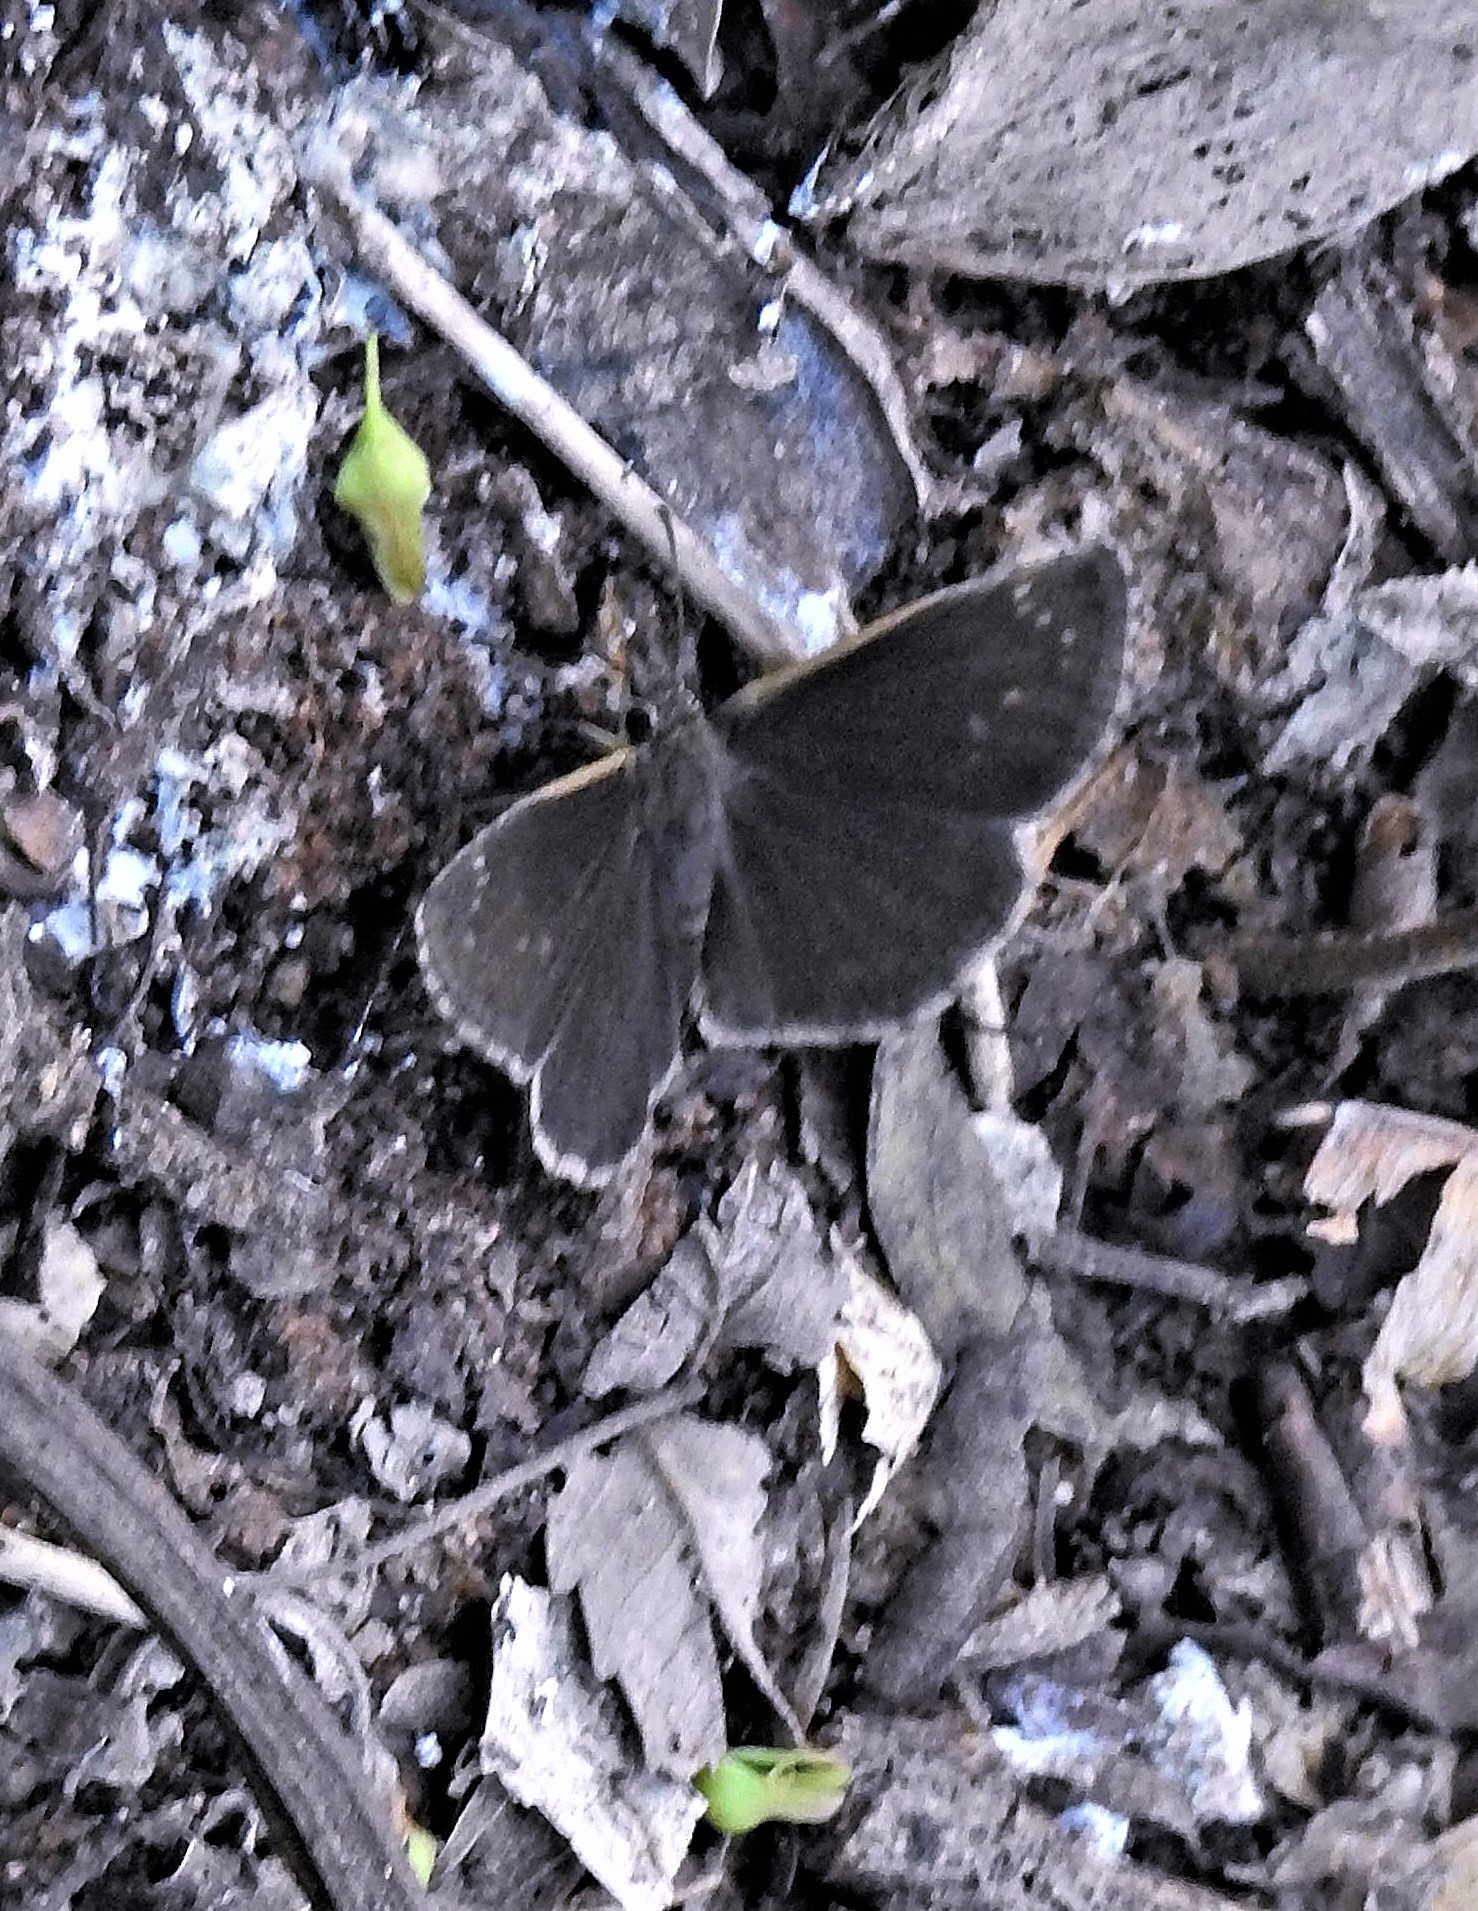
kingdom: Animalia
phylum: Arthropoda
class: Insecta
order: Lepidoptera
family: Hesperiidae
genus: Zopyrion
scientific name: Zopyrion evenor
